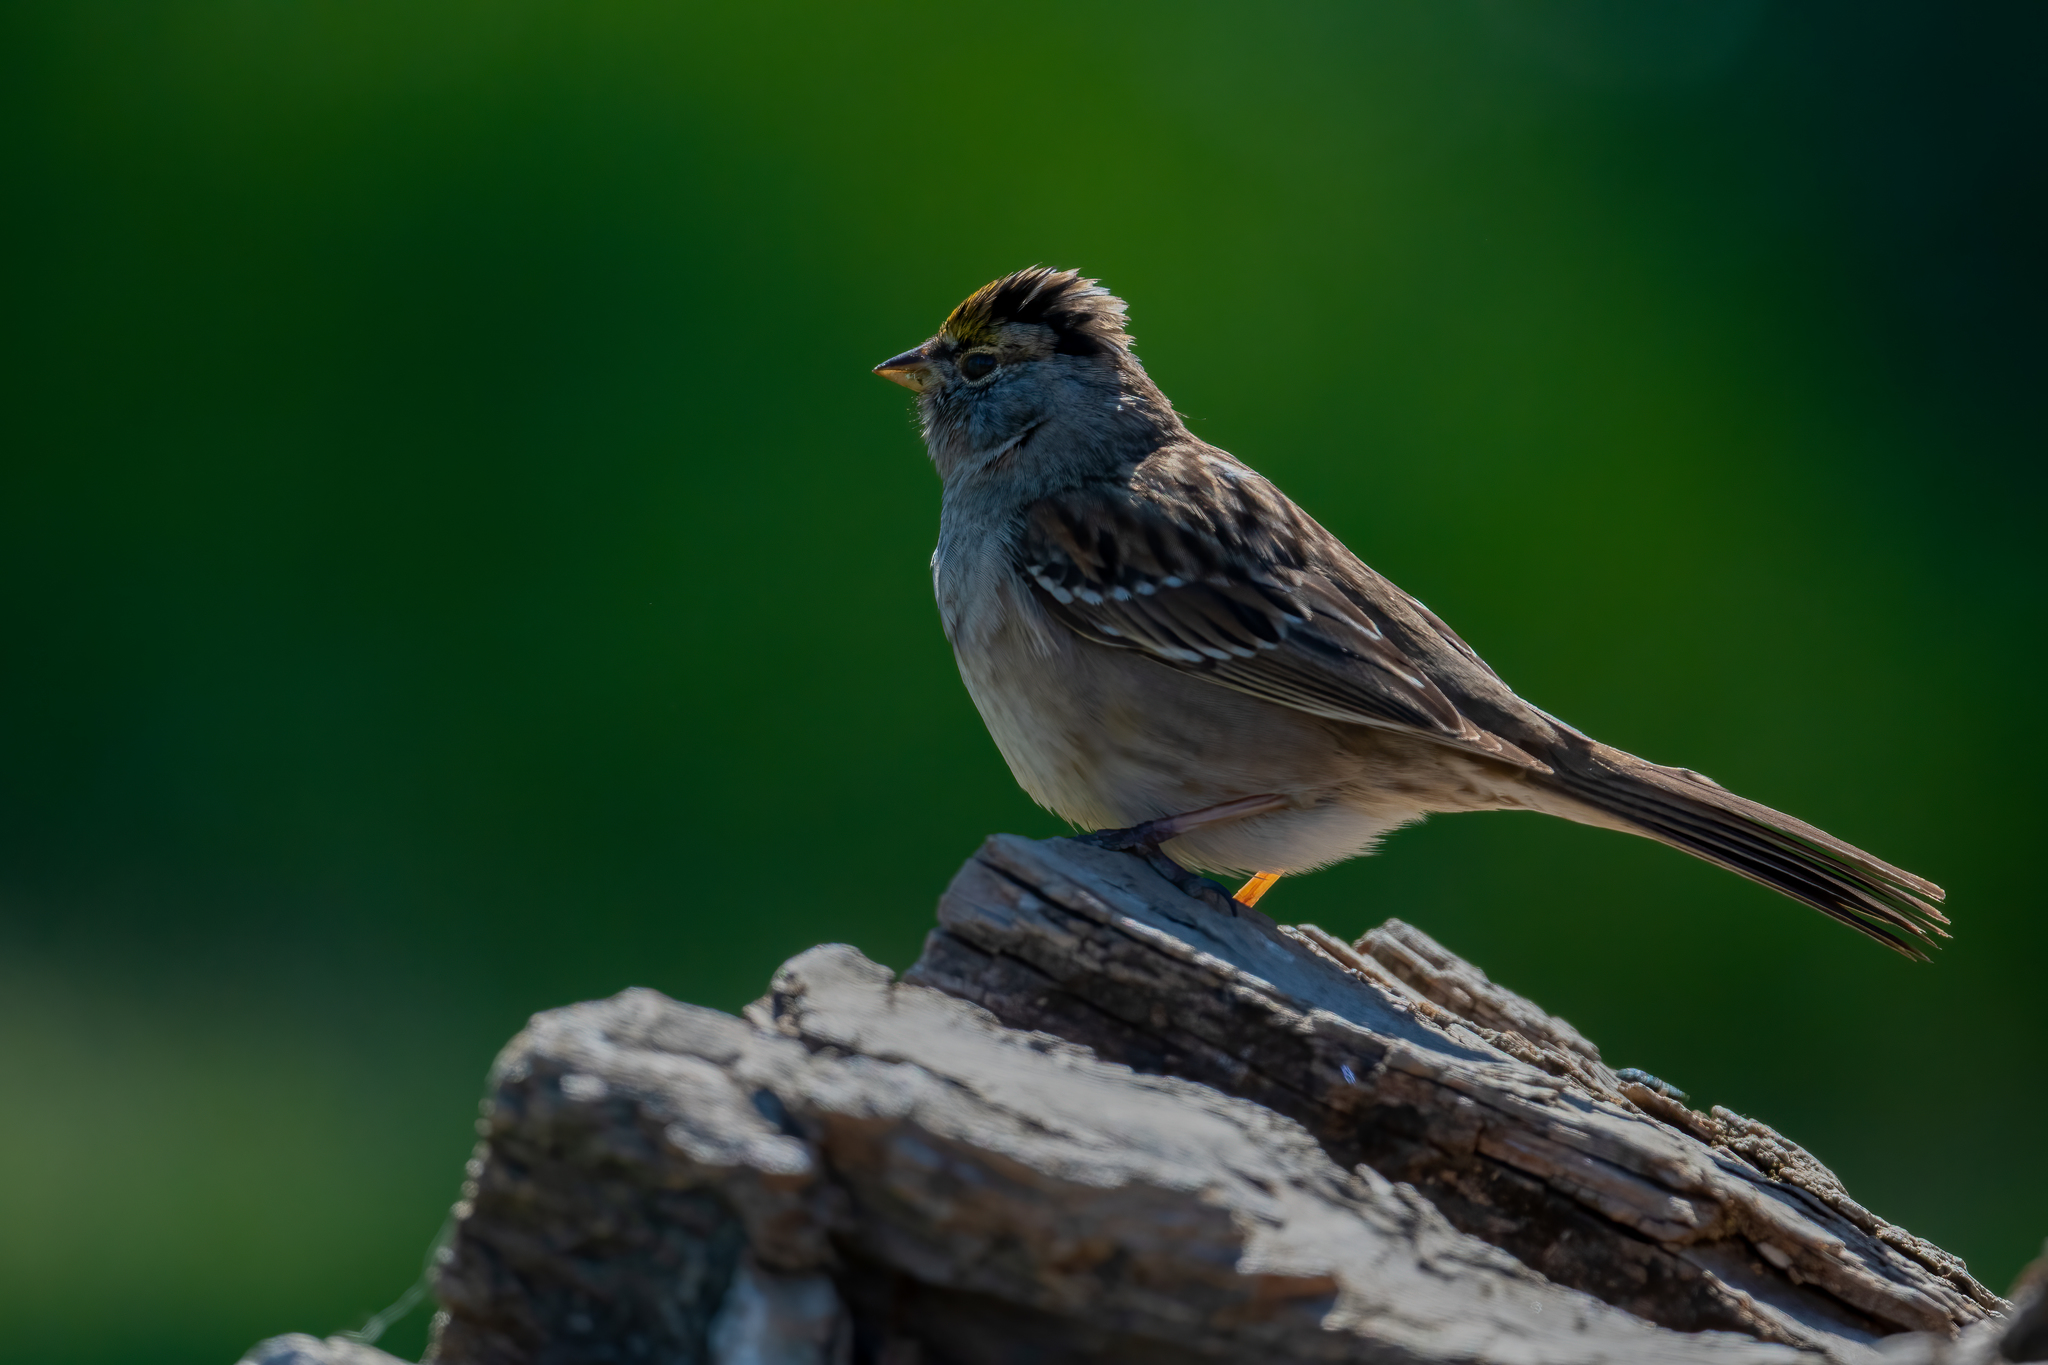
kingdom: Animalia
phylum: Chordata
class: Aves
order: Passeriformes
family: Passerellidae
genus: Zonotrichia
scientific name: Zonotrichia atricapilla
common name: Golden-crowned sparrow
